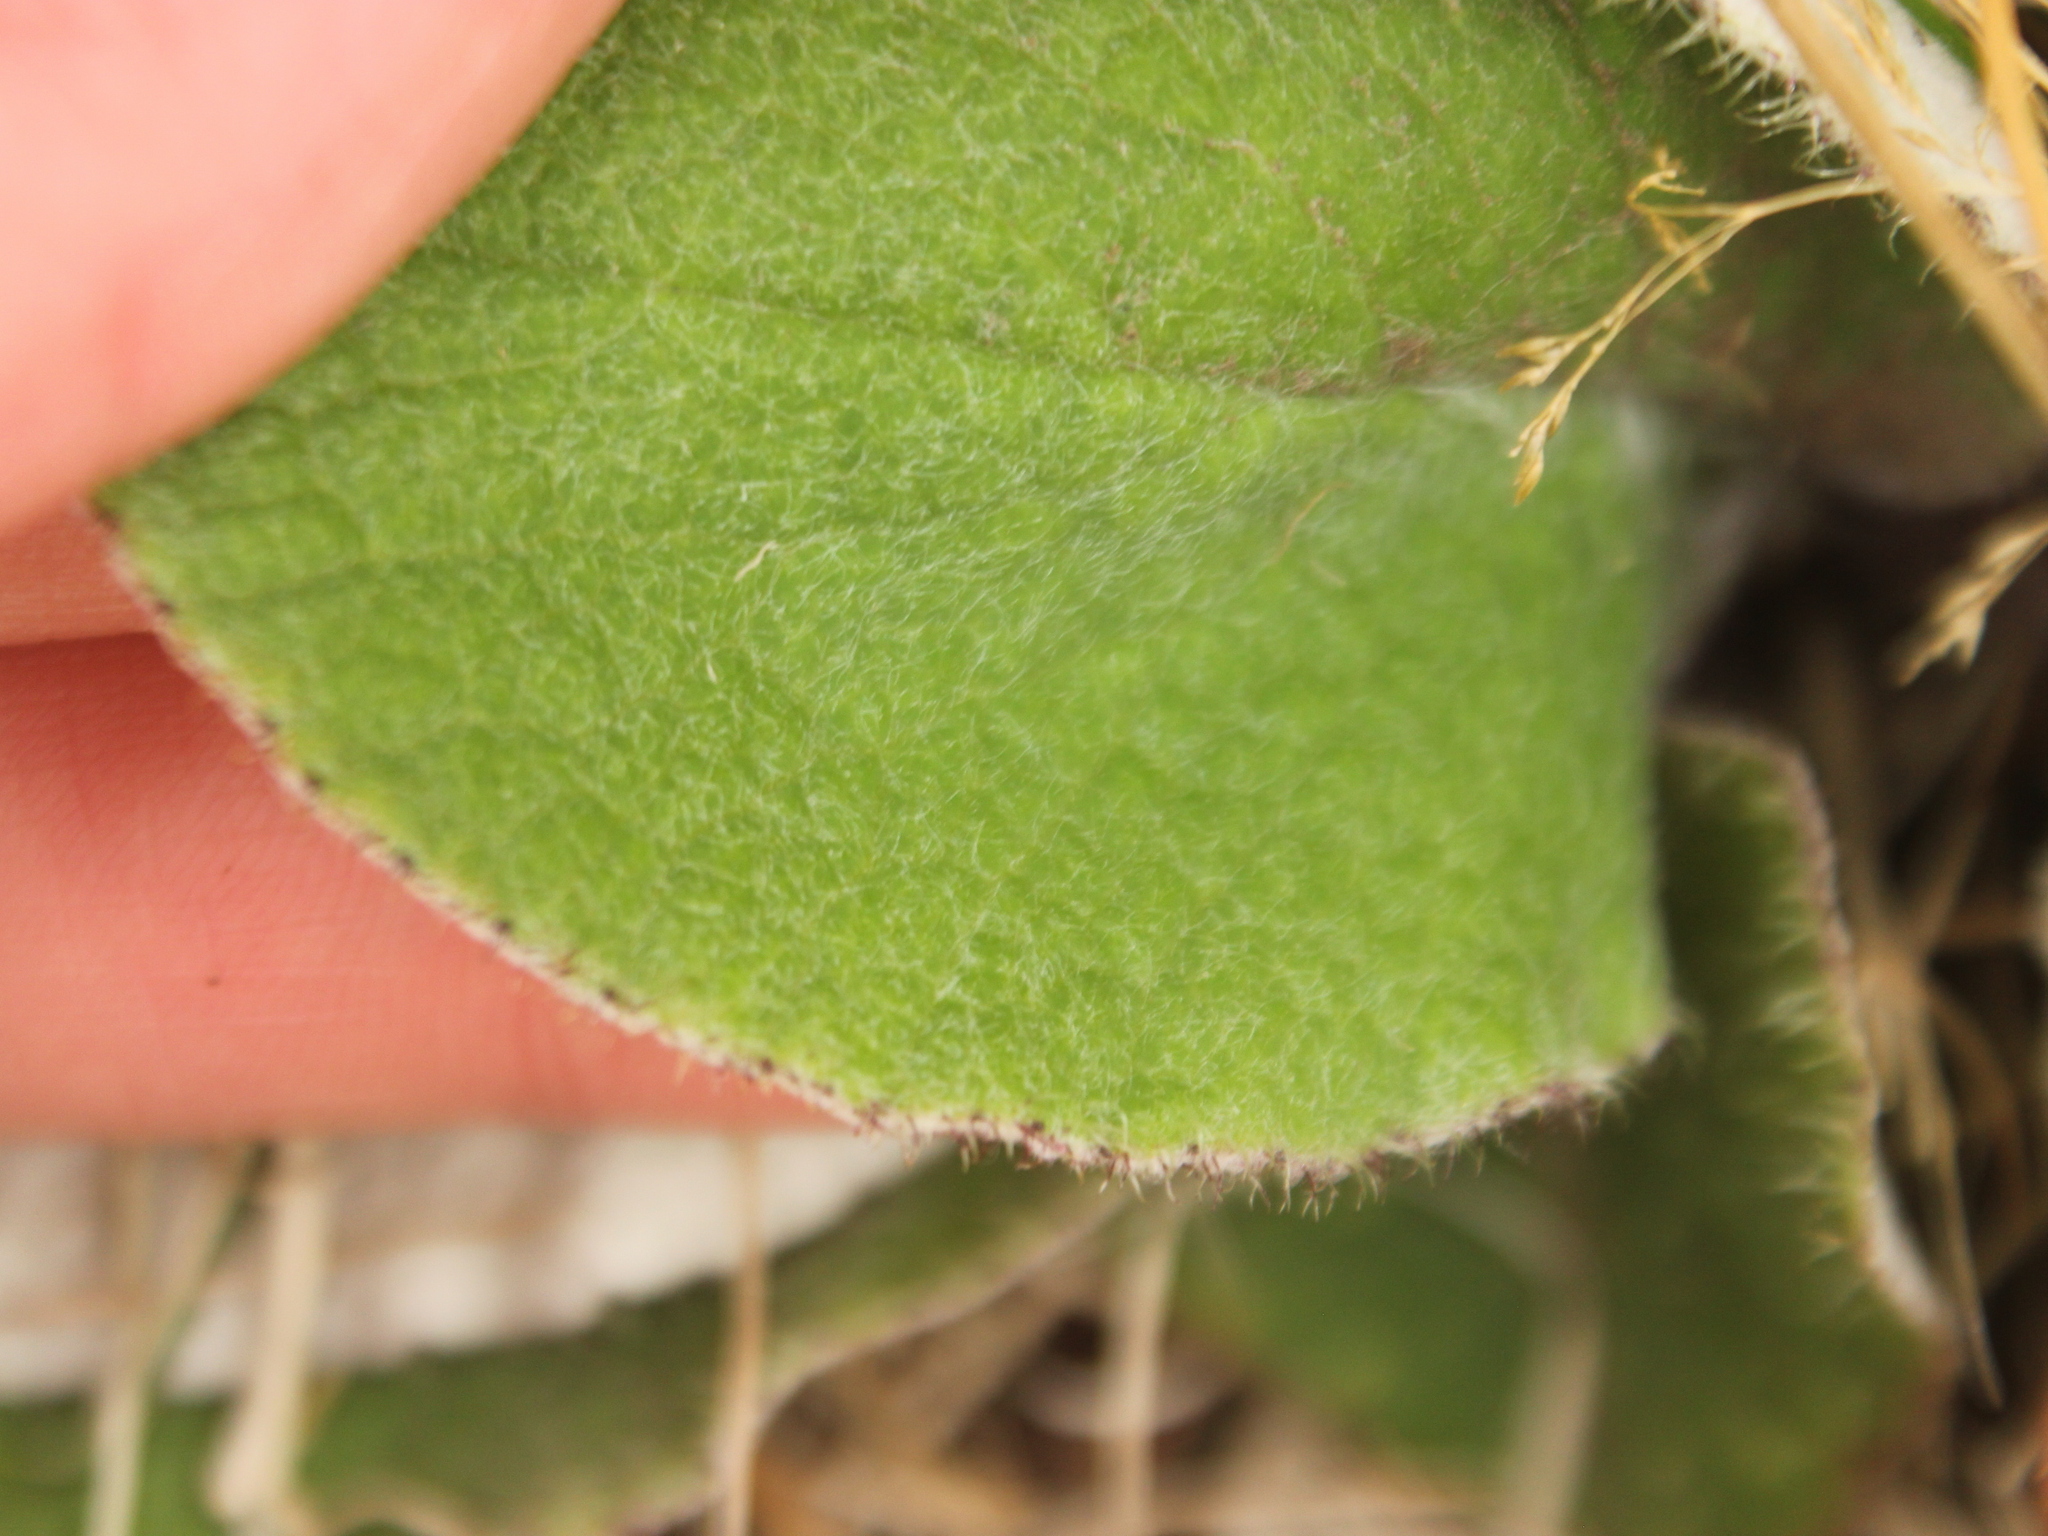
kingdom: Plantae
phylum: Tracheophyta
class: Magnoliopsida
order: Asterales
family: Asteraceae
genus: Brachyglottis
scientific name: Brachyglottis lagopus
